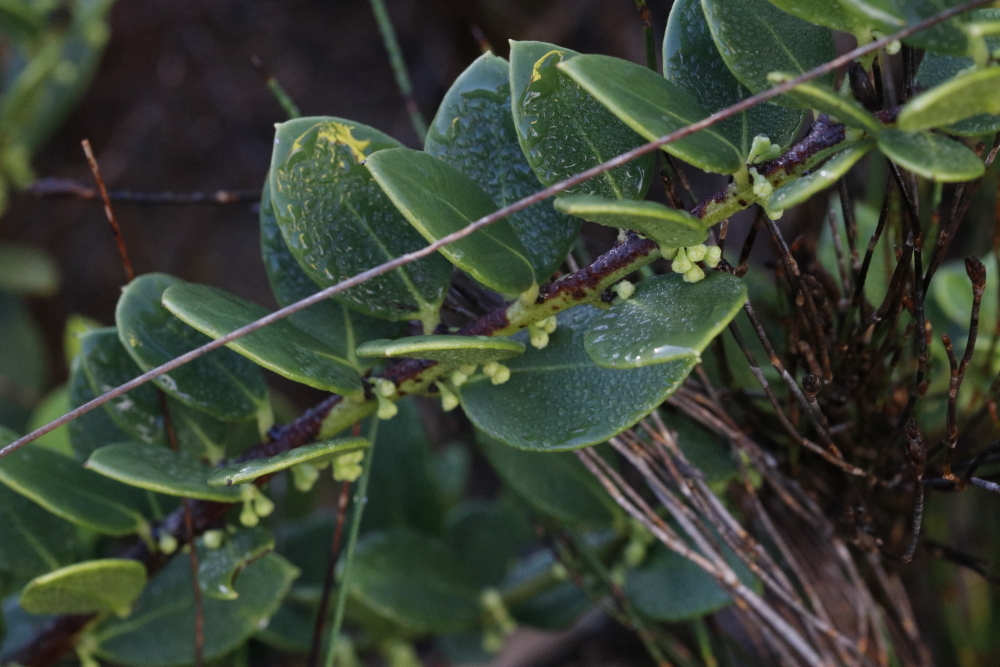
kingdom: Plantae
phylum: Tracheophyta
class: Magnoliopsida
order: Celastrales
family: Celastraceae
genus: Robsonodendron
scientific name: Robsonodendron maritimum
